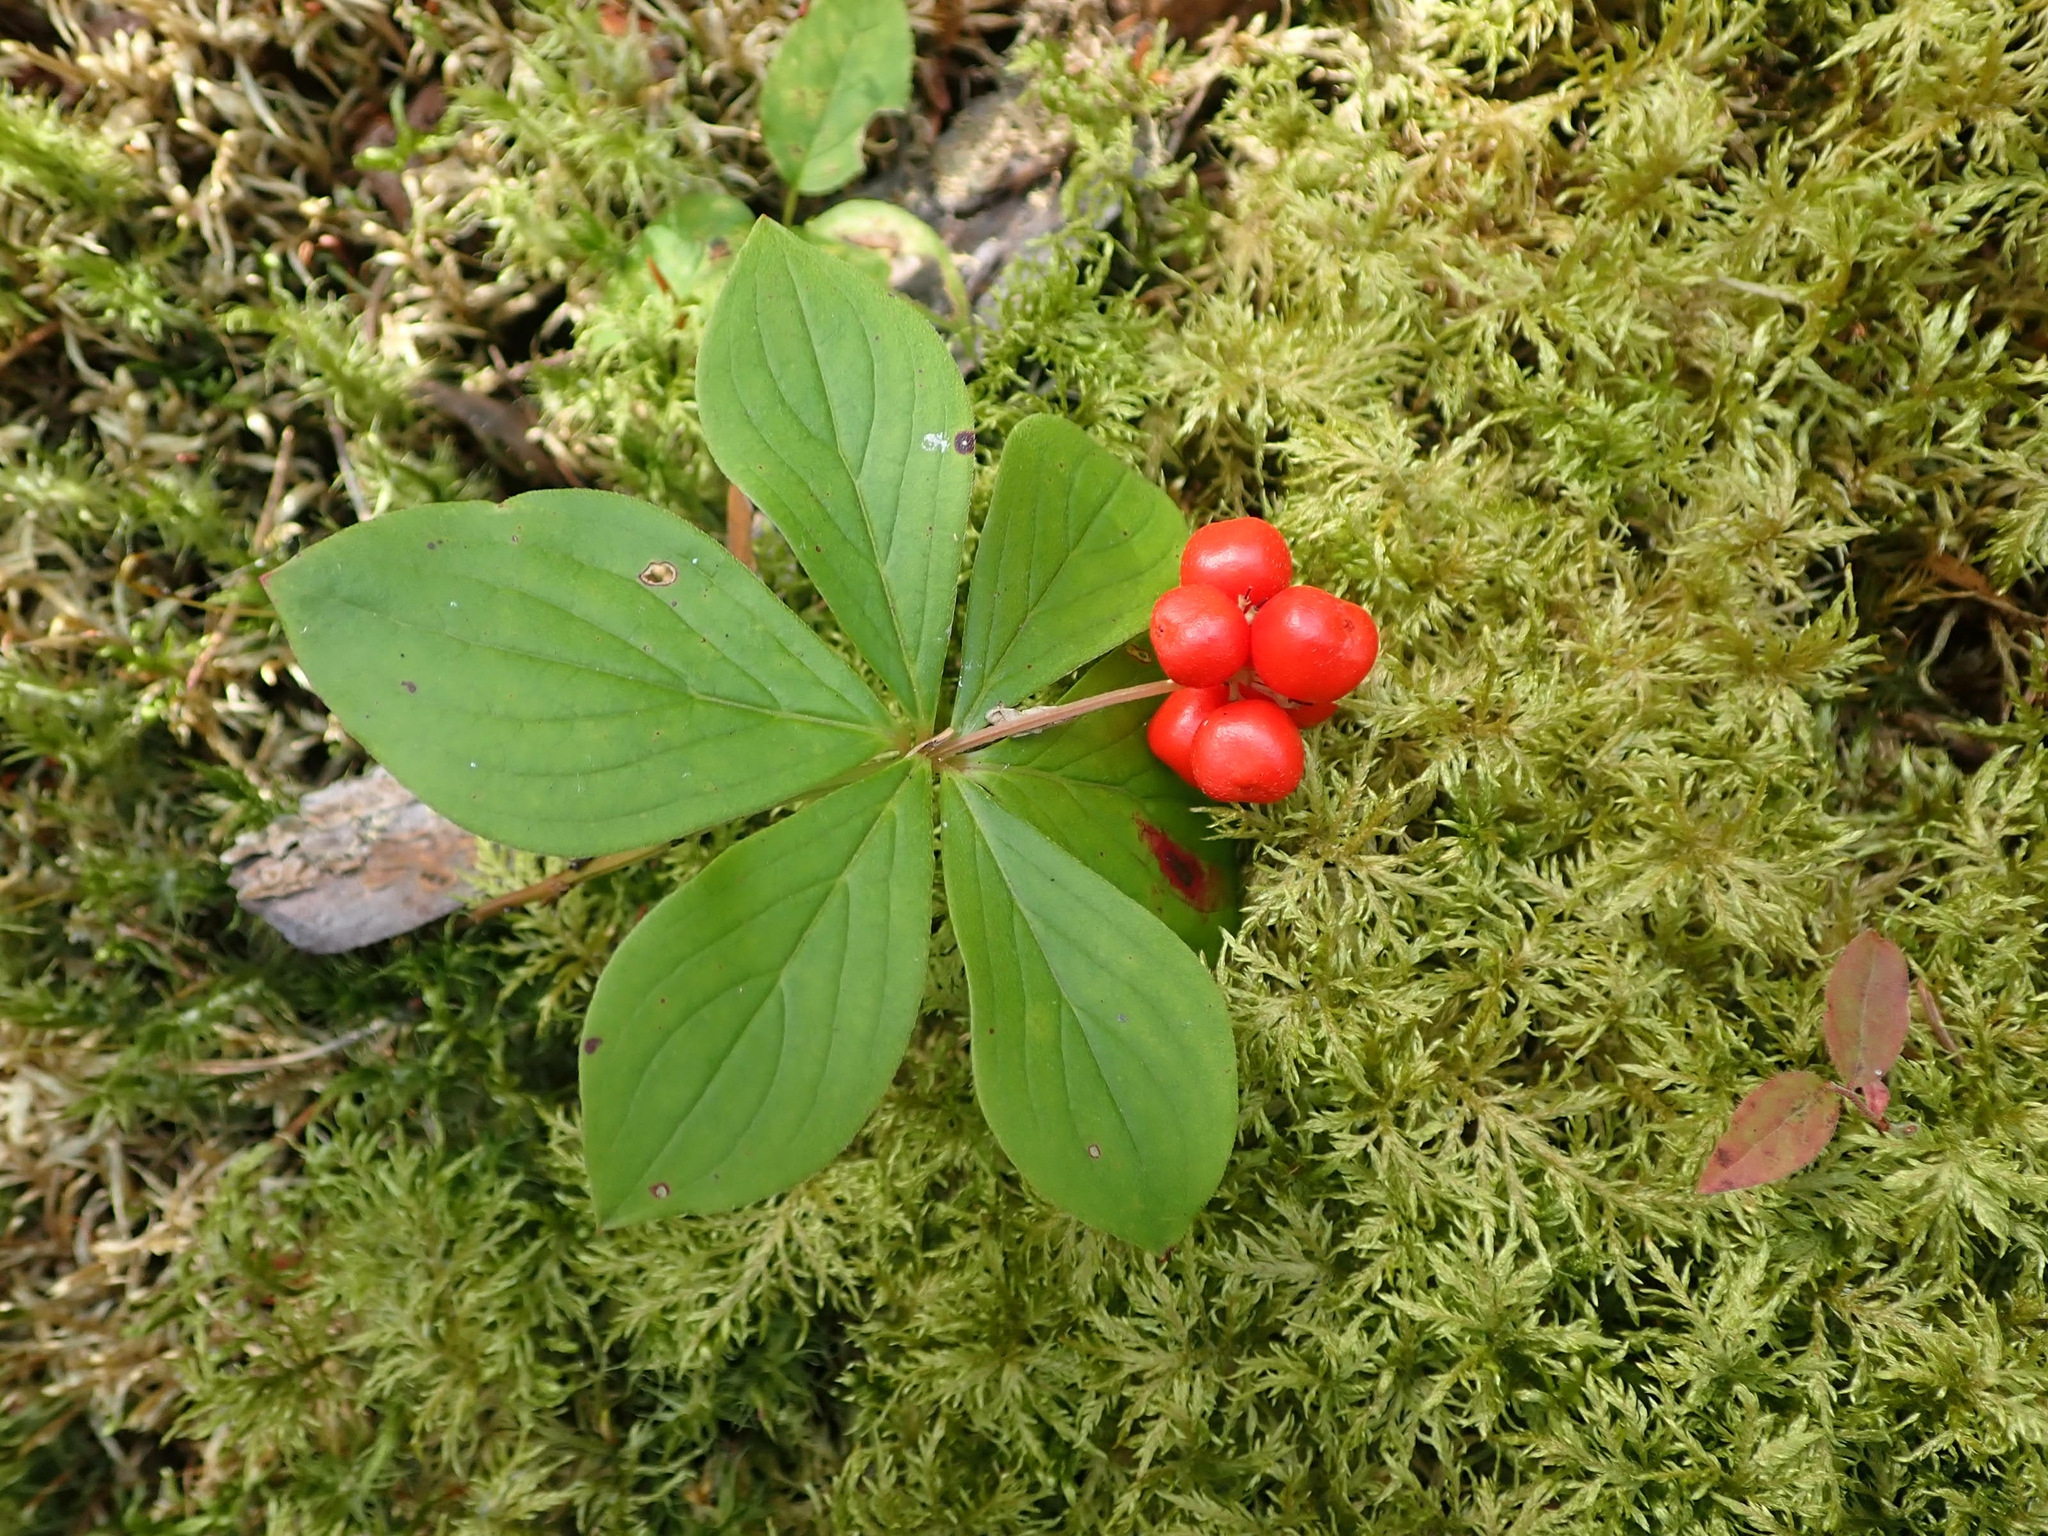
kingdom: Plantae
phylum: Tracheophyta
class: Magnoliopsida
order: Cornales
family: Cornaceae
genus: Cornus
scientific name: Cornus canadensis
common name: Creeping dogwood
